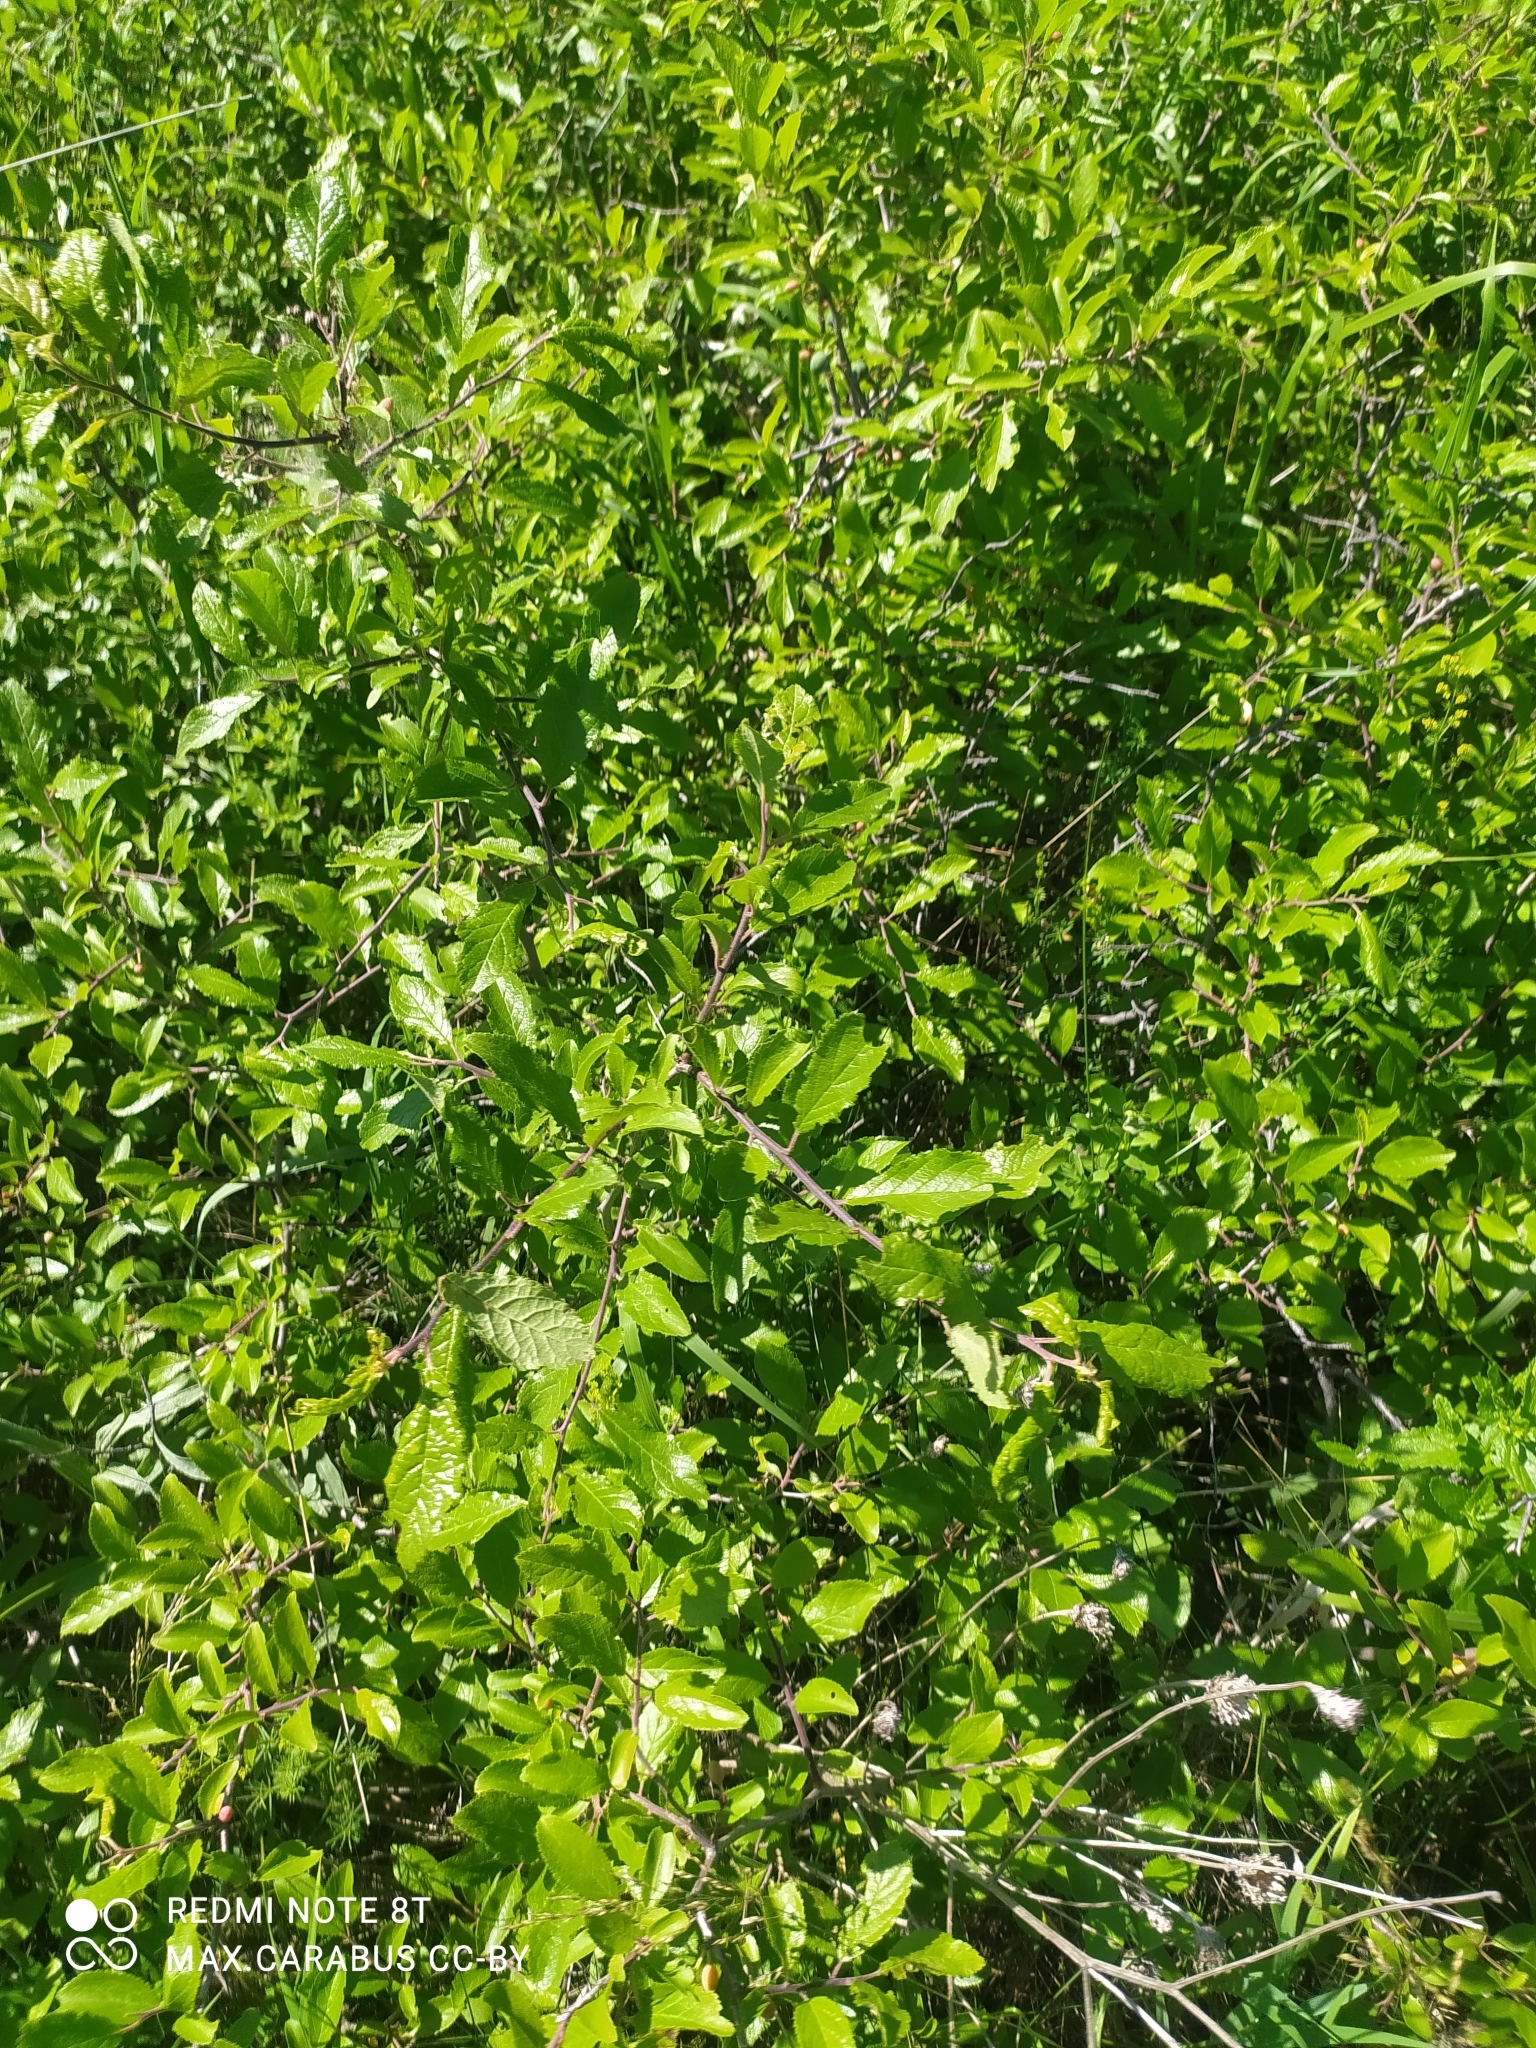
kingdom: Plantae
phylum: Tracheophyta
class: Magnoliopsida
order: Rosales
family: Rosaceae
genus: Prunus
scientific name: Prunus spinosa
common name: Blackthorn
